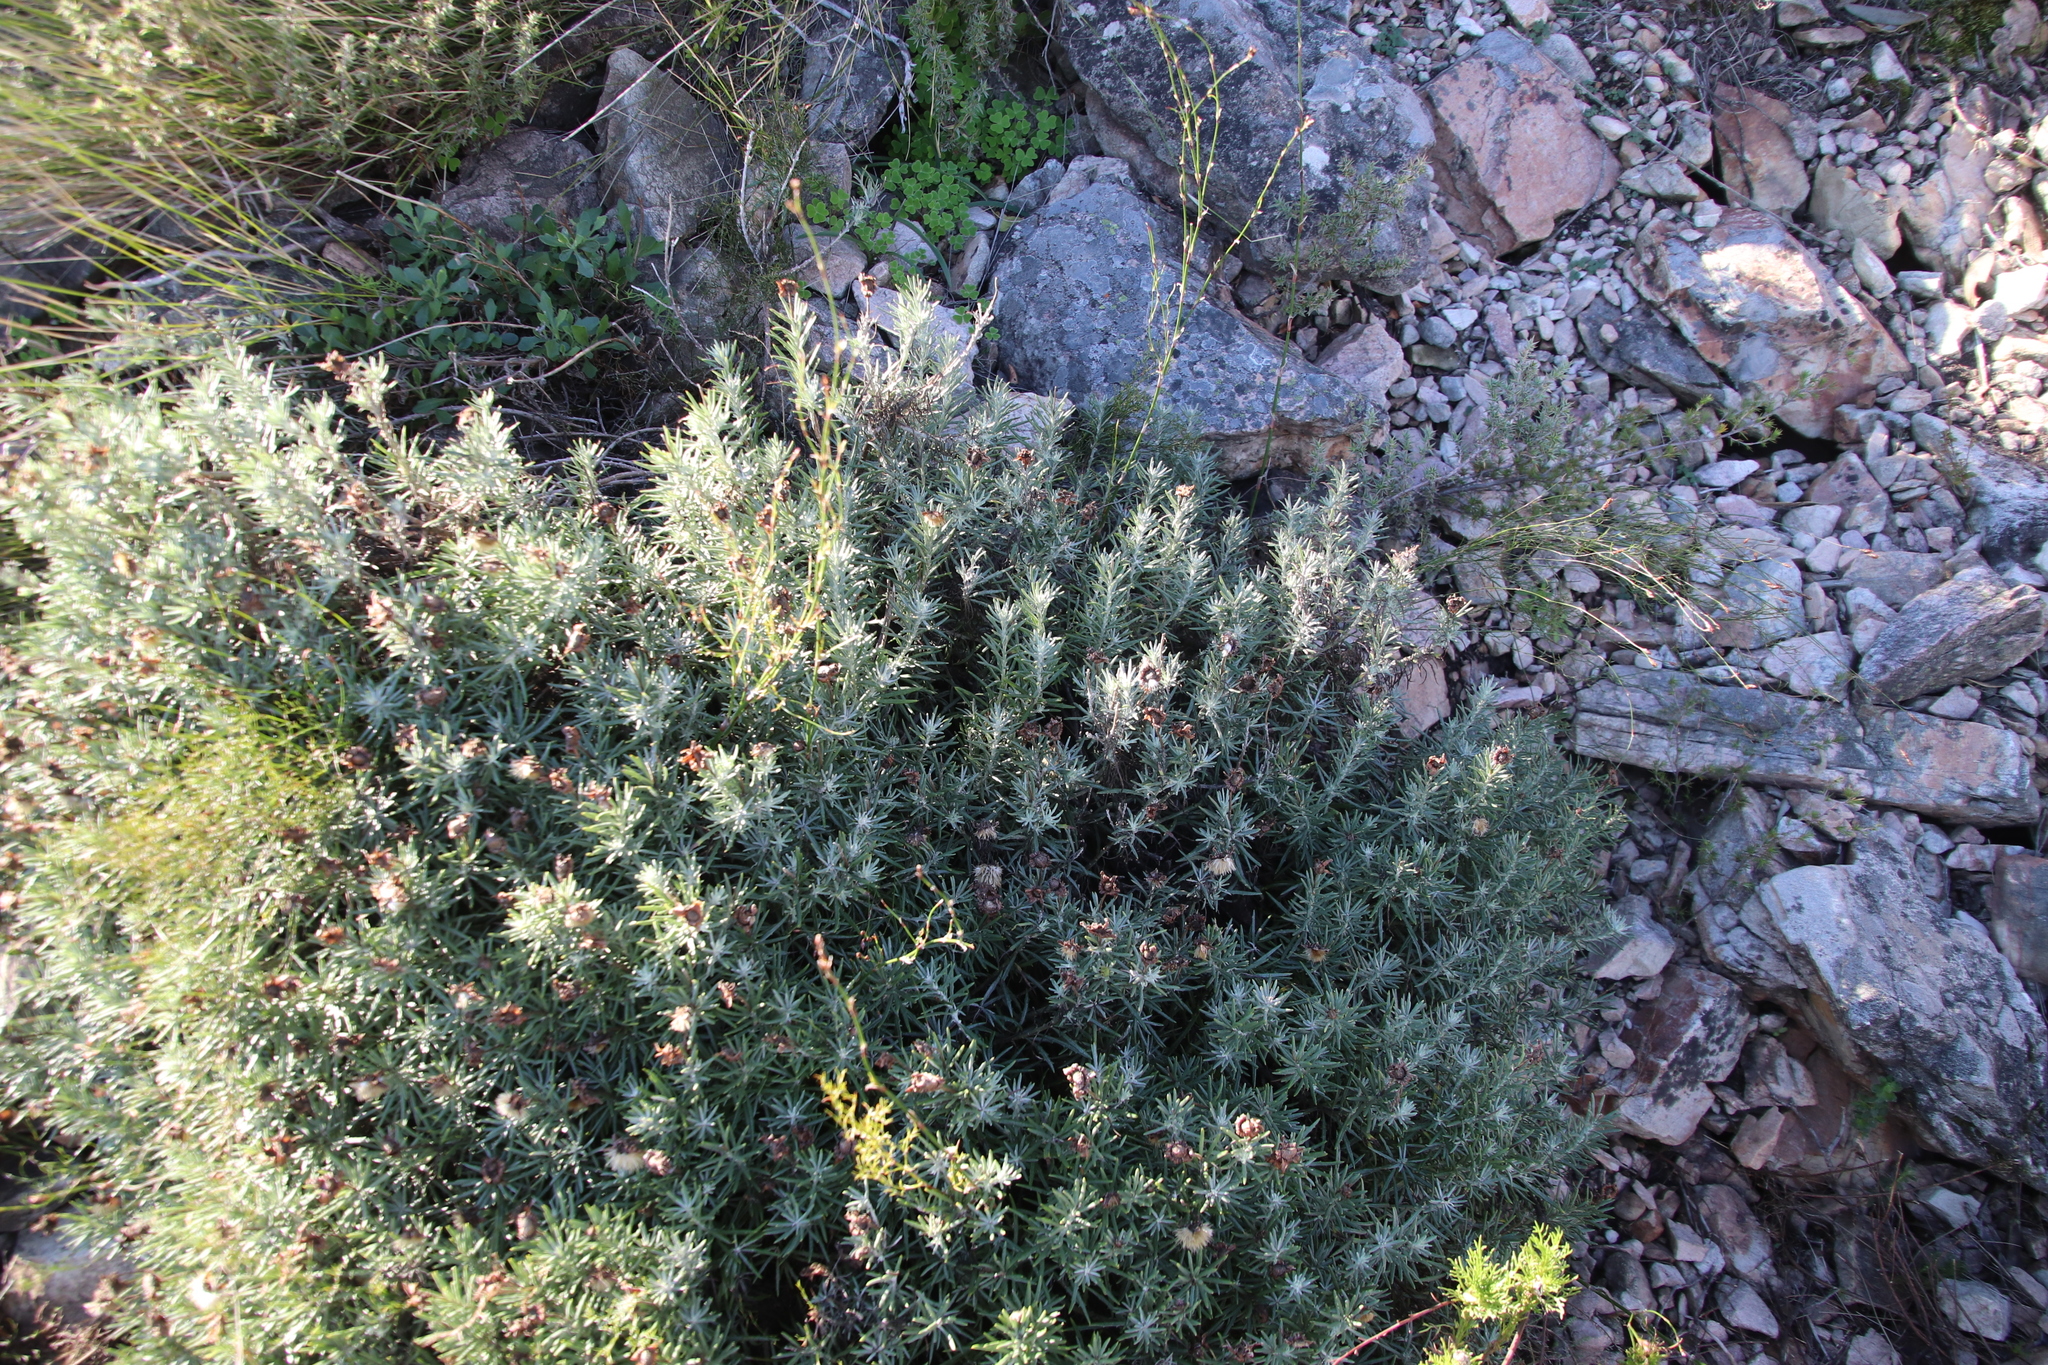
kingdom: Plantae
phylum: Tracheophyta
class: Magnoliopsida
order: Asterales
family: Asteraceae
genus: Heterolepis
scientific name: Heterolepis aliena
